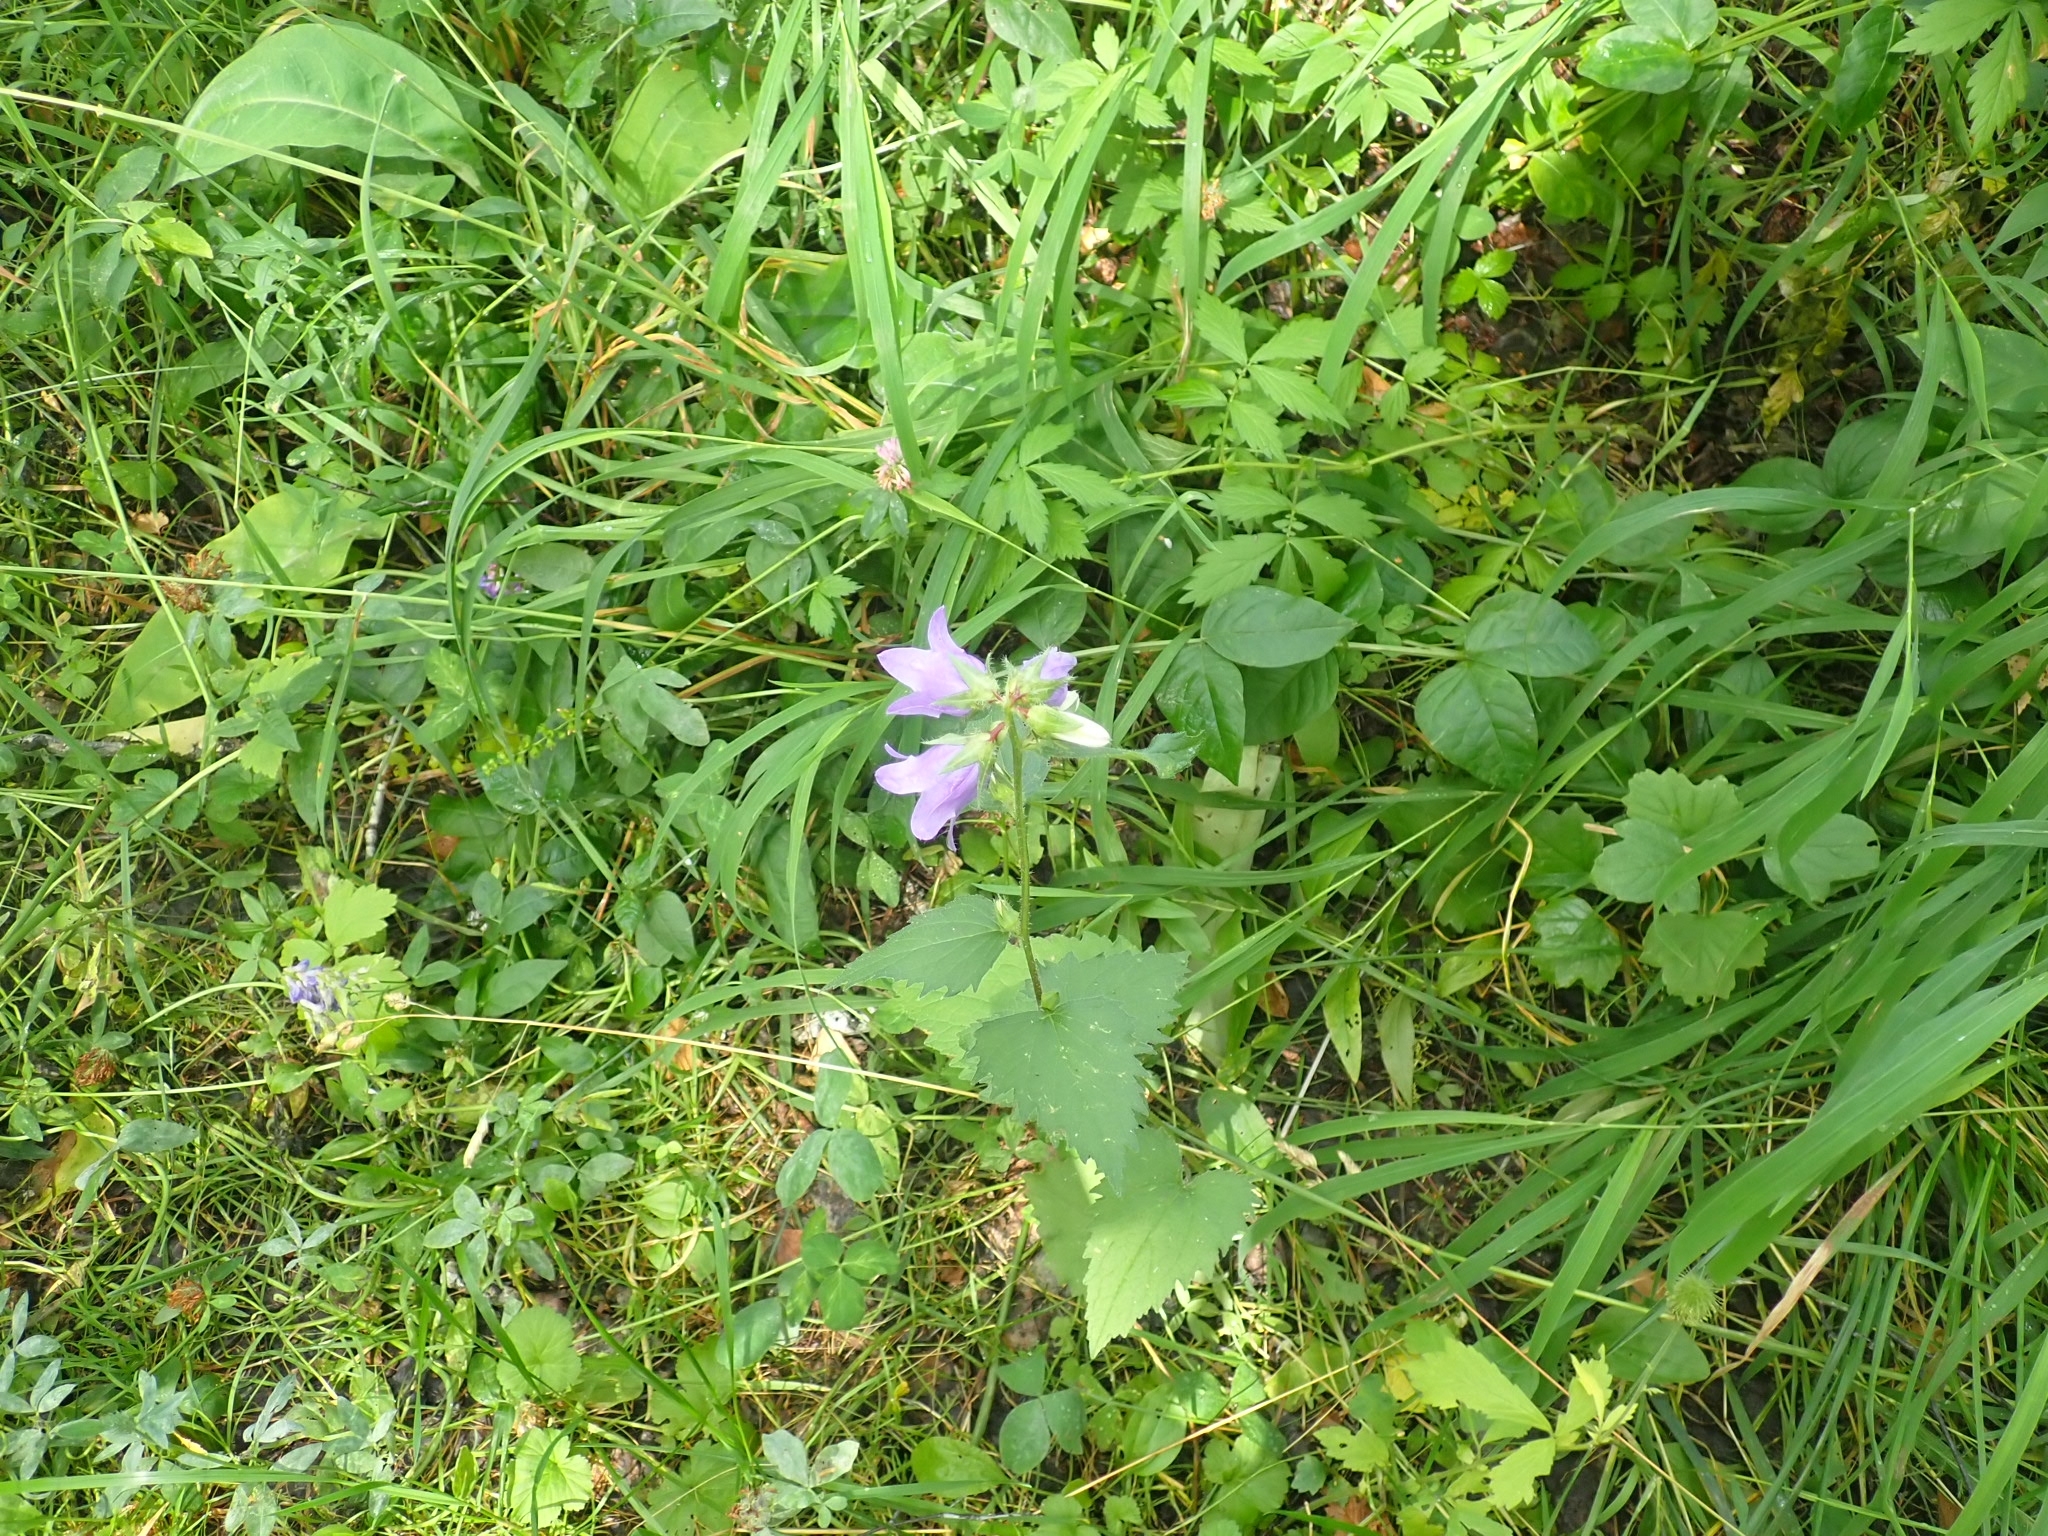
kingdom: Plantae
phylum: Tracheophyta
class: Magnoliopsida
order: Asterales
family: Campanulaceae
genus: Campanula
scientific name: Campanula trachelium
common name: Nettle-leaved bellflower
